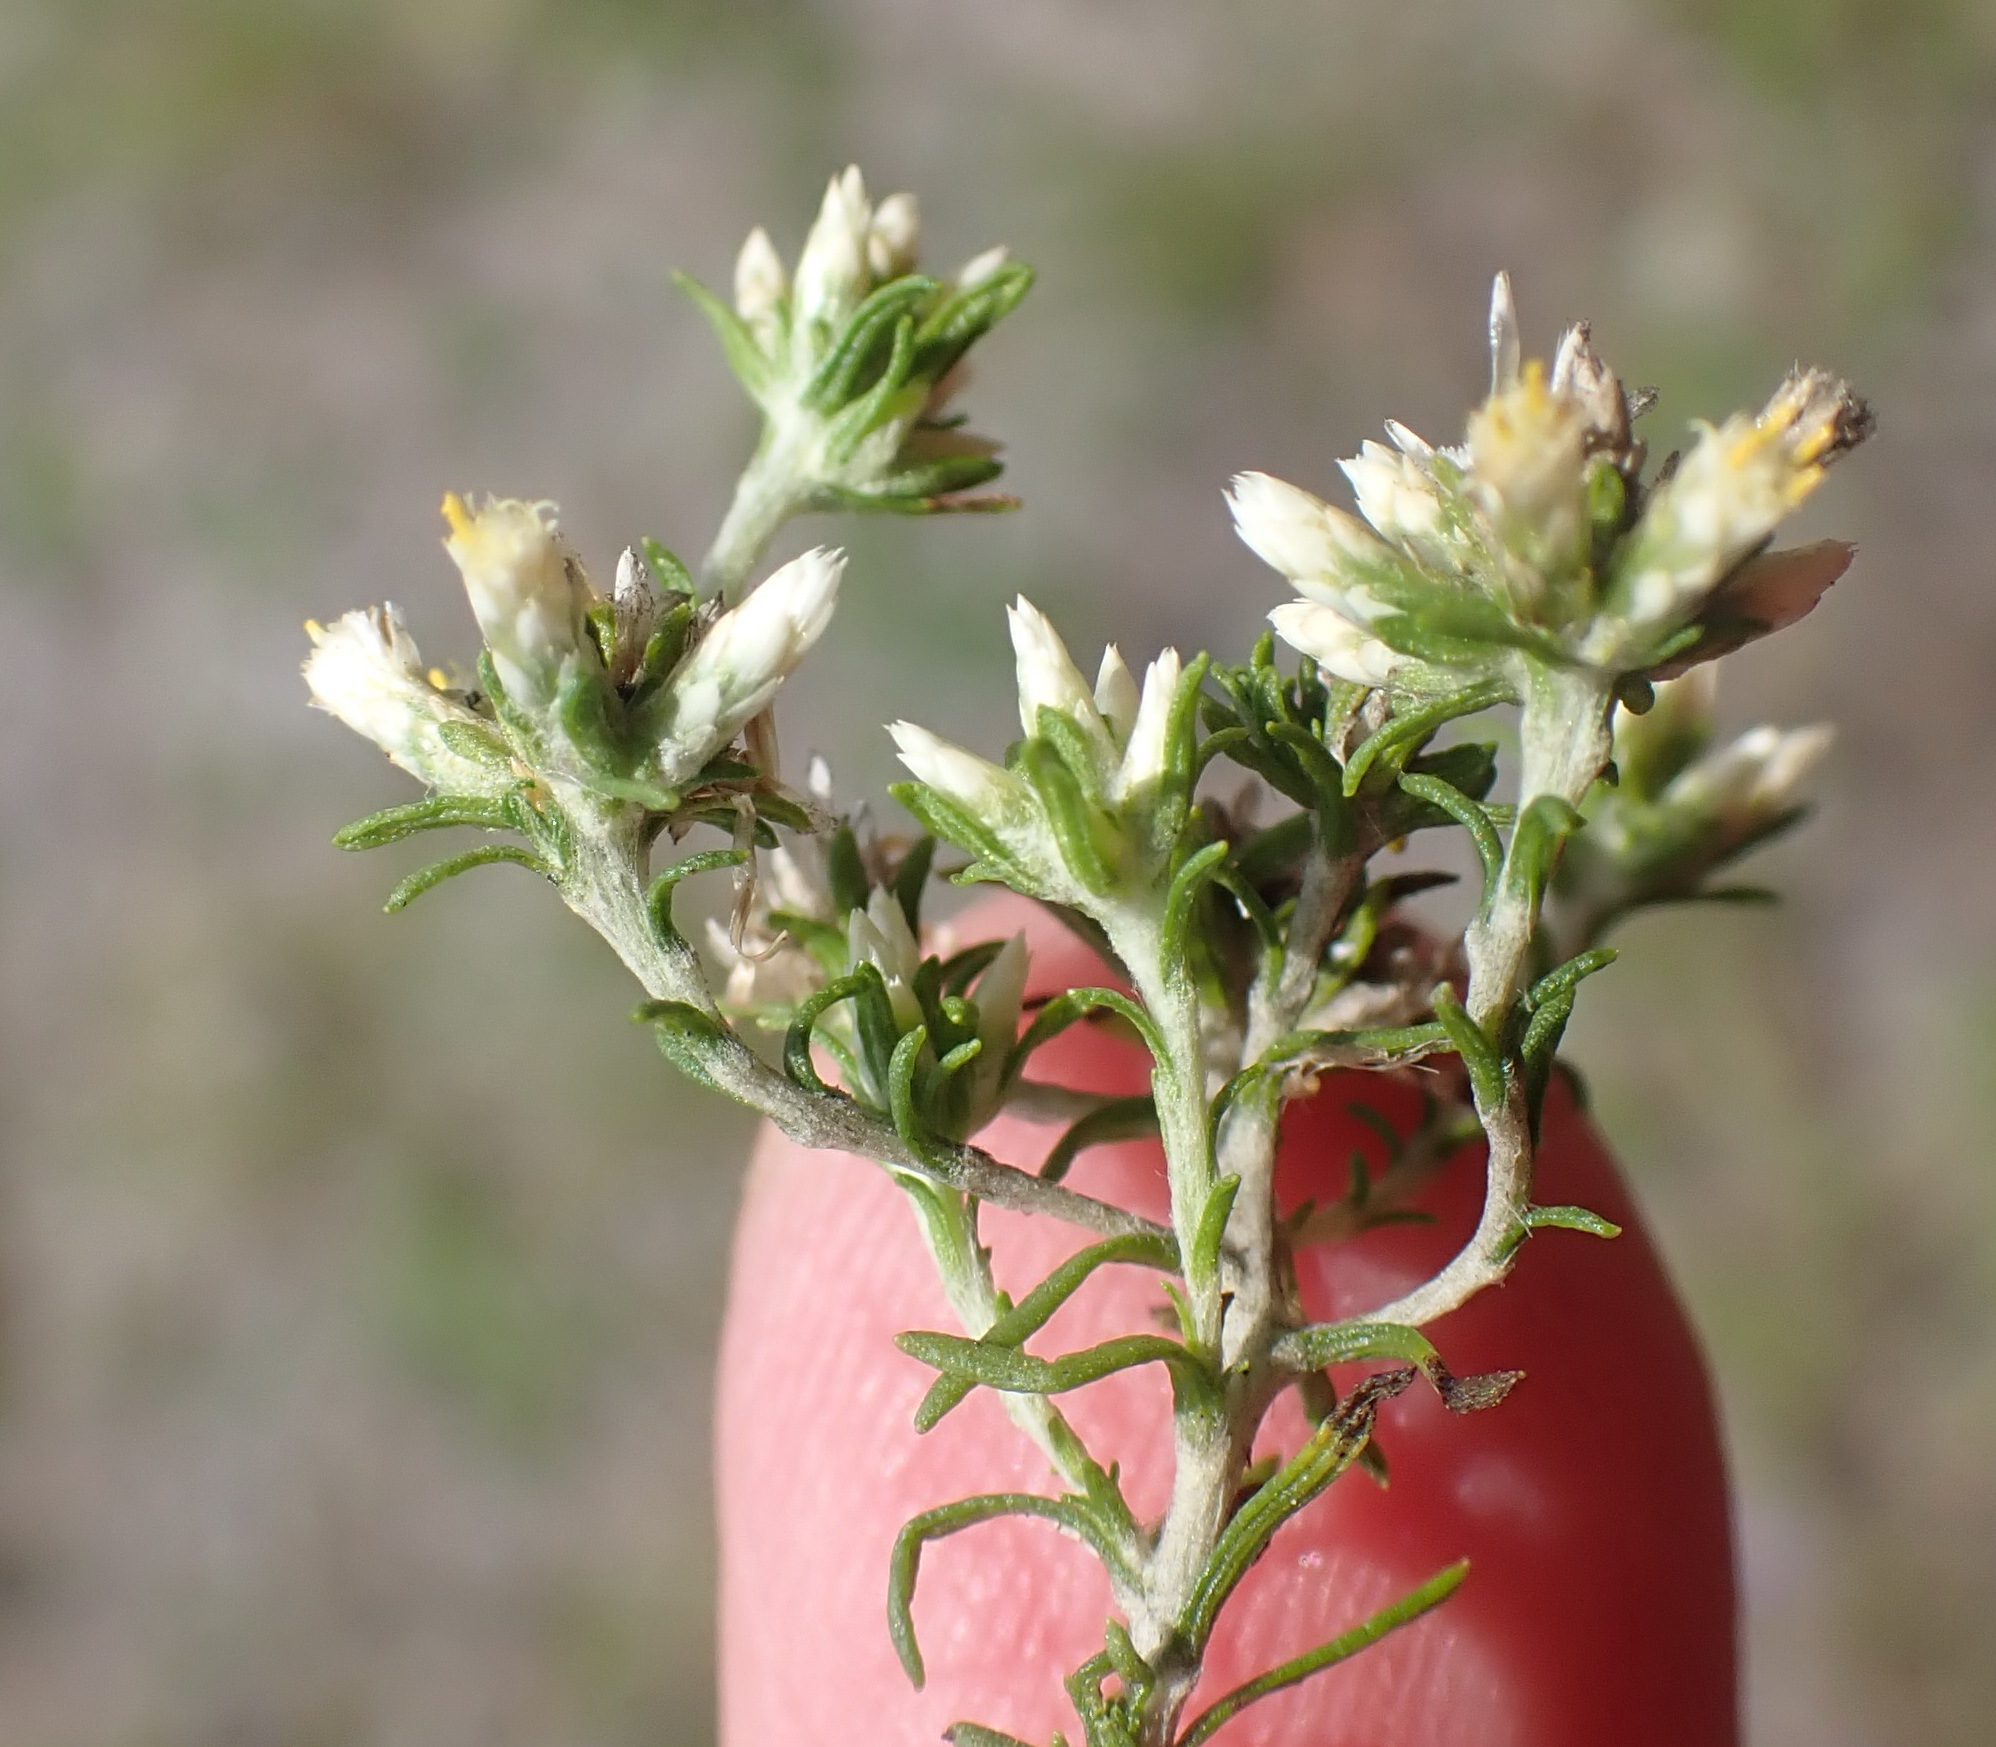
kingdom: Plantae
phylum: Tracheophyta
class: Magnoliopsida
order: Asterales
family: Asteraceae
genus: Helichrysum
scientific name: Helichrysum niveum
